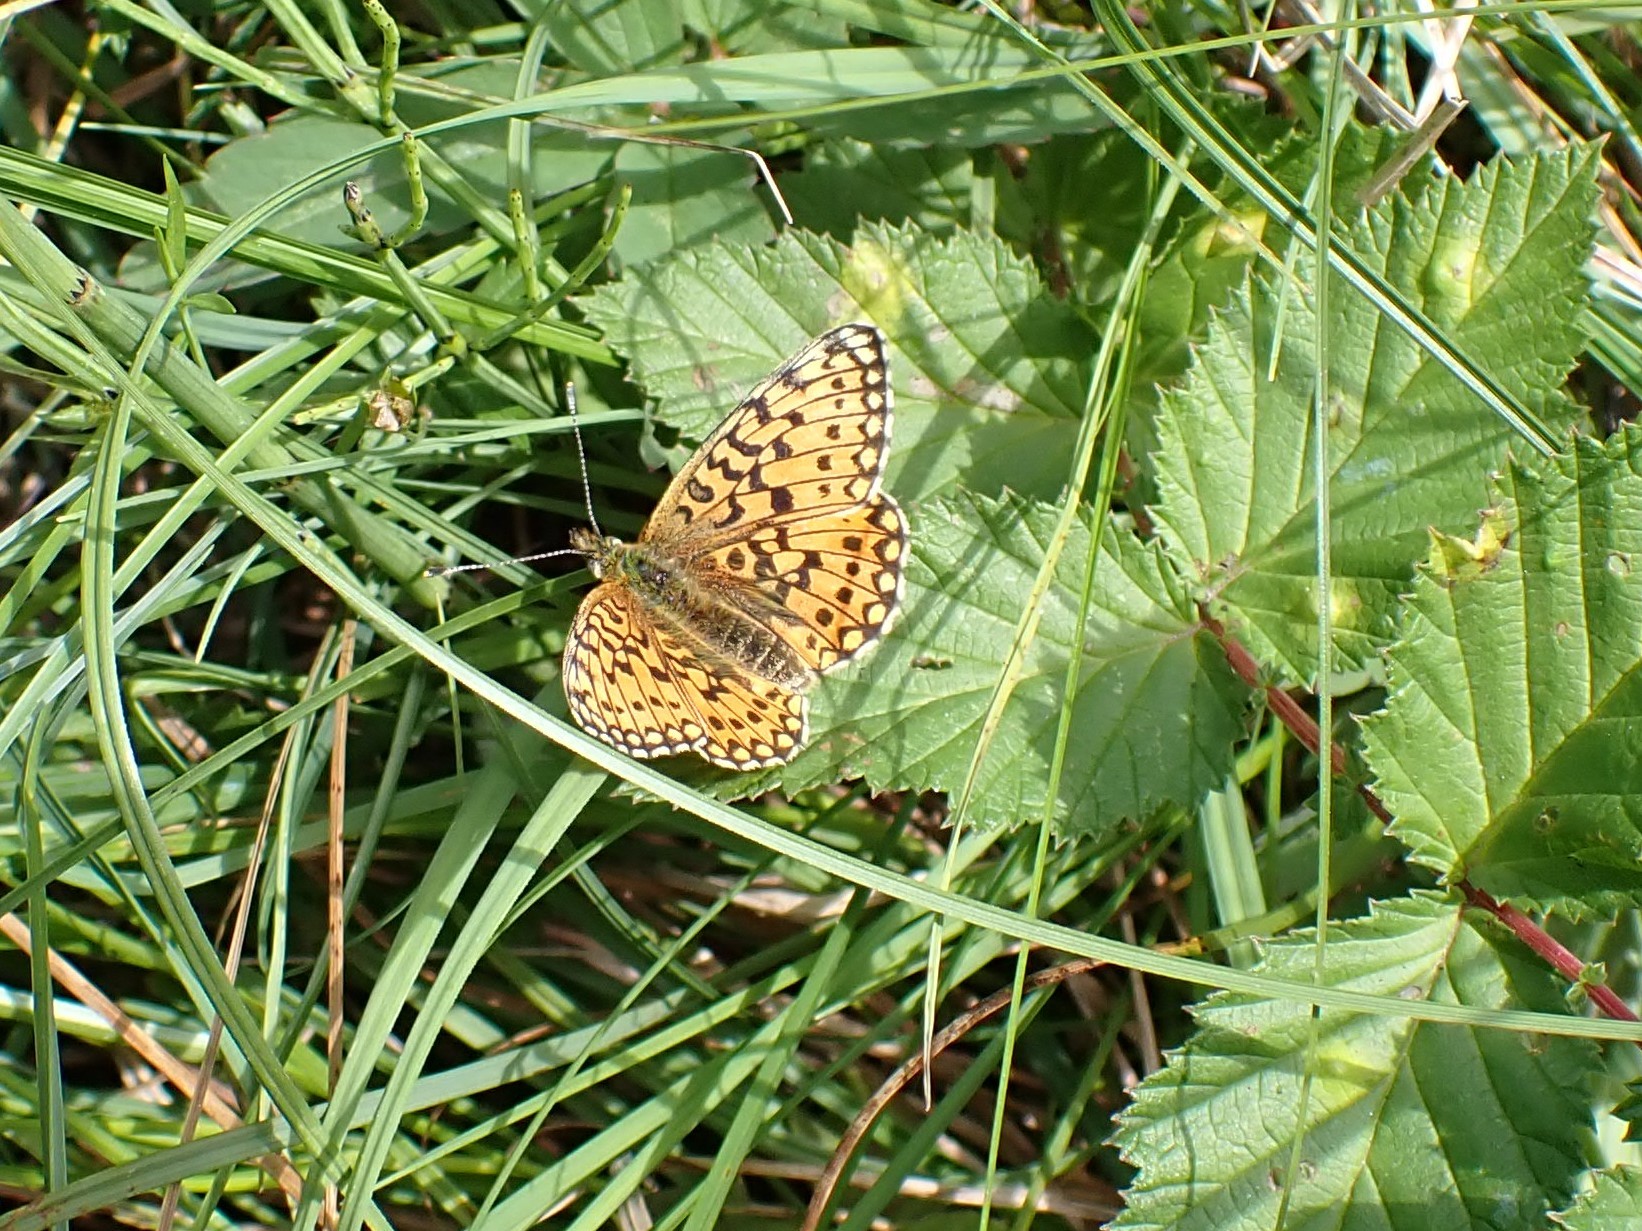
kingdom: Animalia
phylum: Arthropoda
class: Insecta
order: Lepidoptera
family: Nymphalidae
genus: Boloria
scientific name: Boloria selene
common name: Small pearl-bordered fritillary
